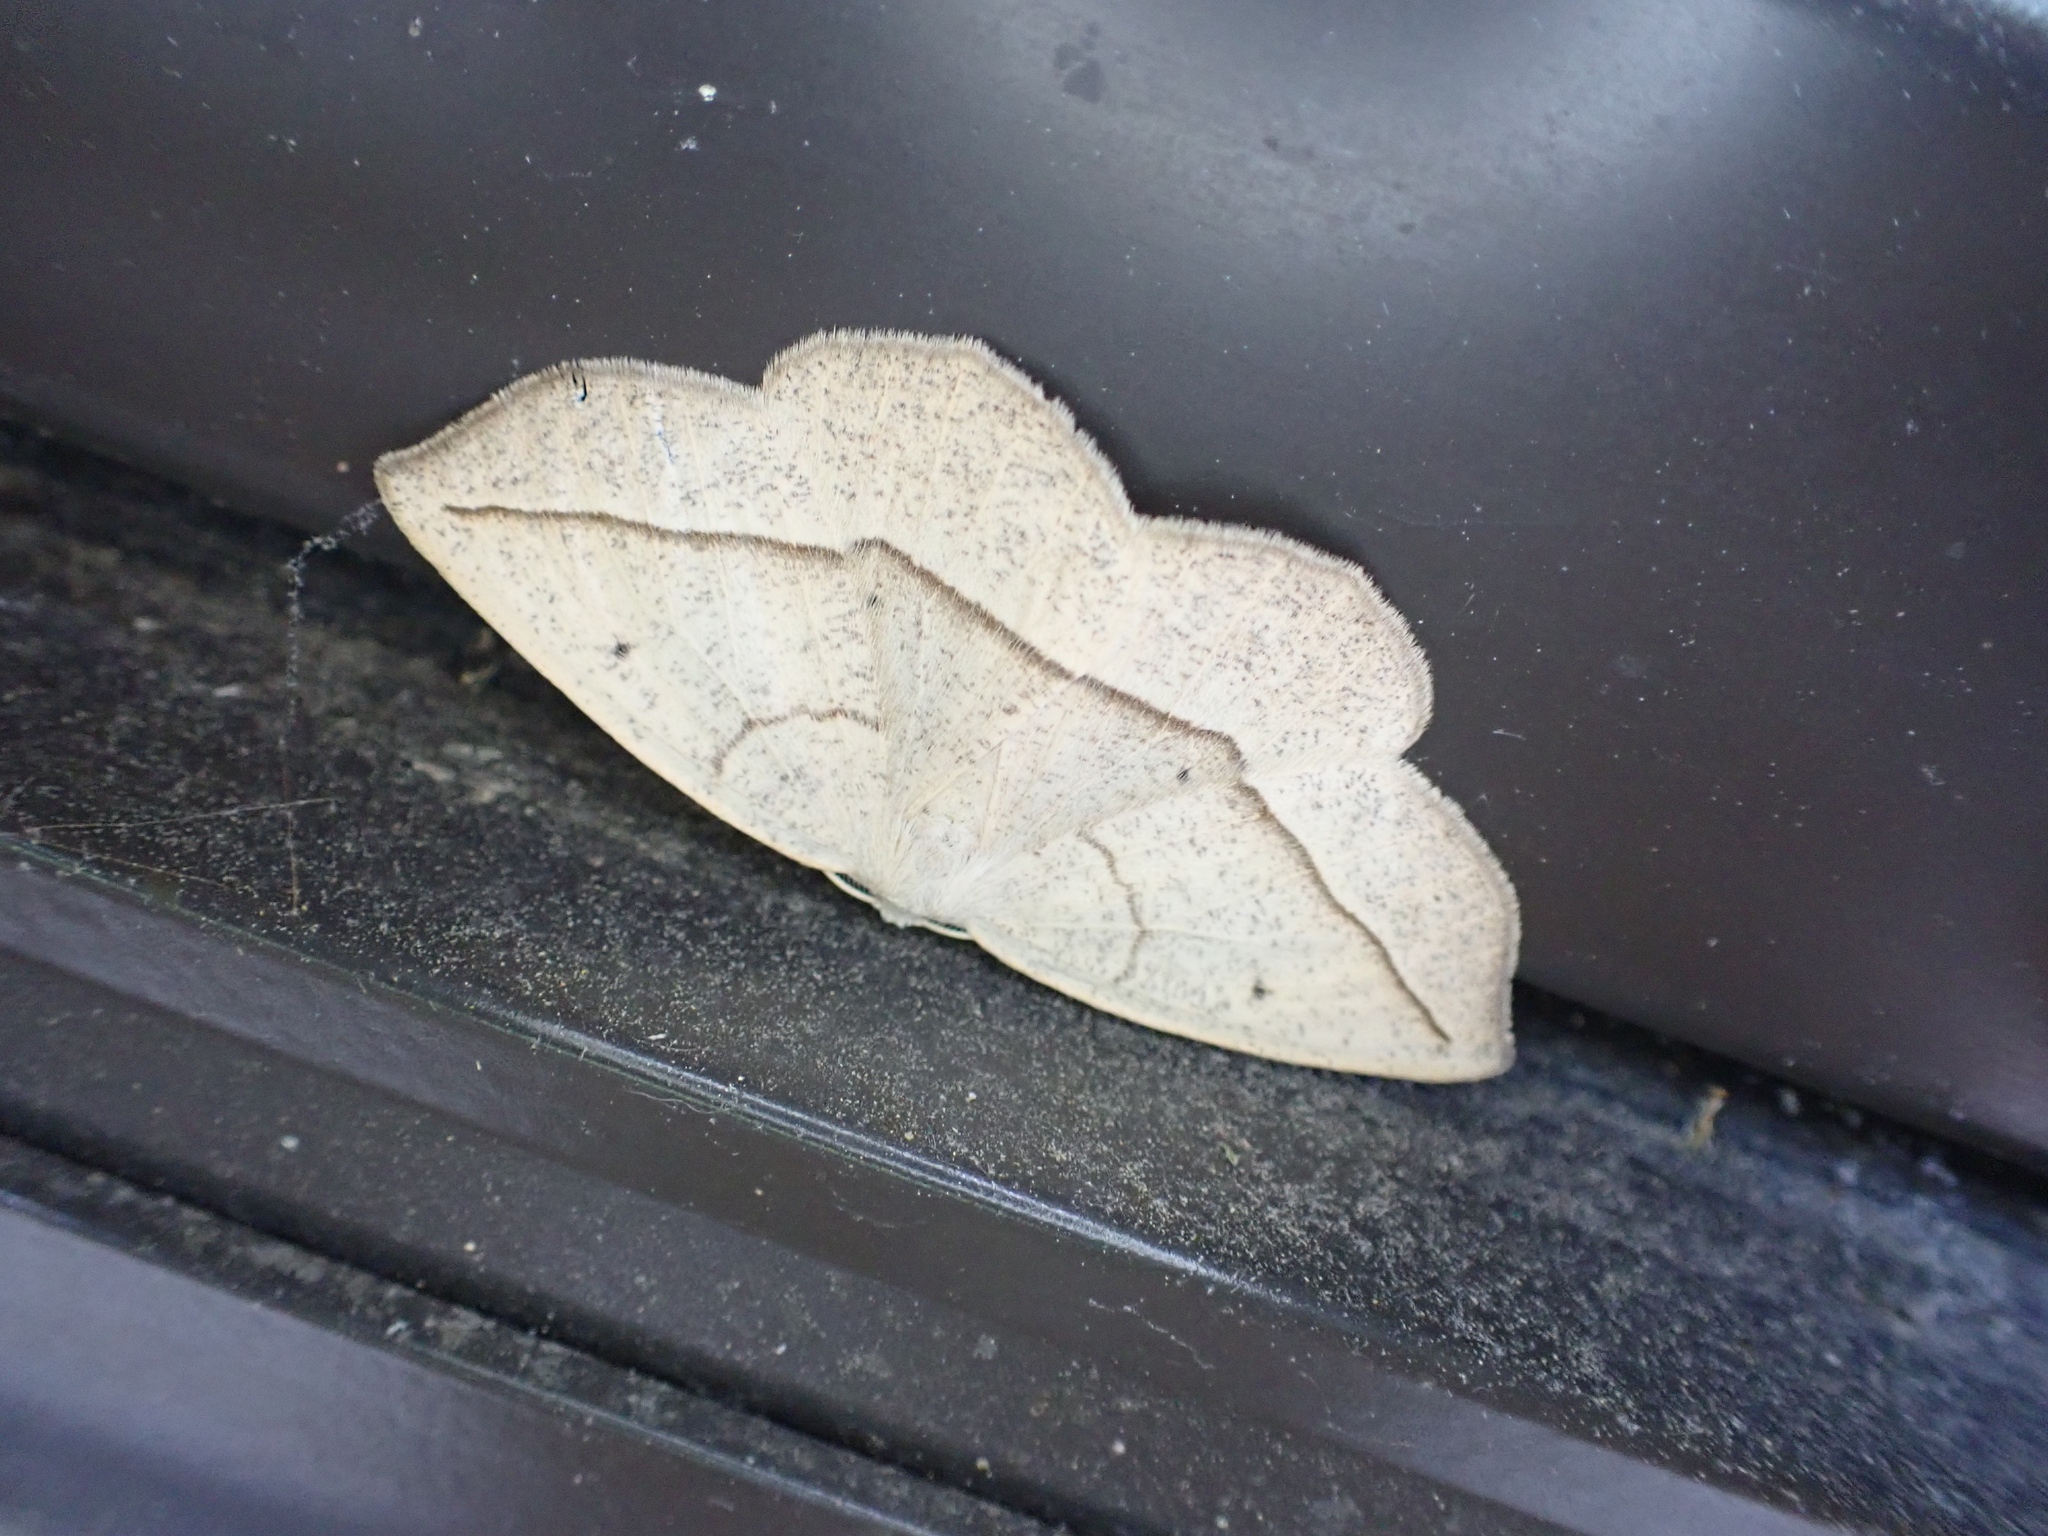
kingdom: Animalia
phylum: Arthropoda
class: Insecta
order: Lepidoptera
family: Geometridae
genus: Eusarca
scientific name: Eusarca confusaria
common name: Confused eusarca
